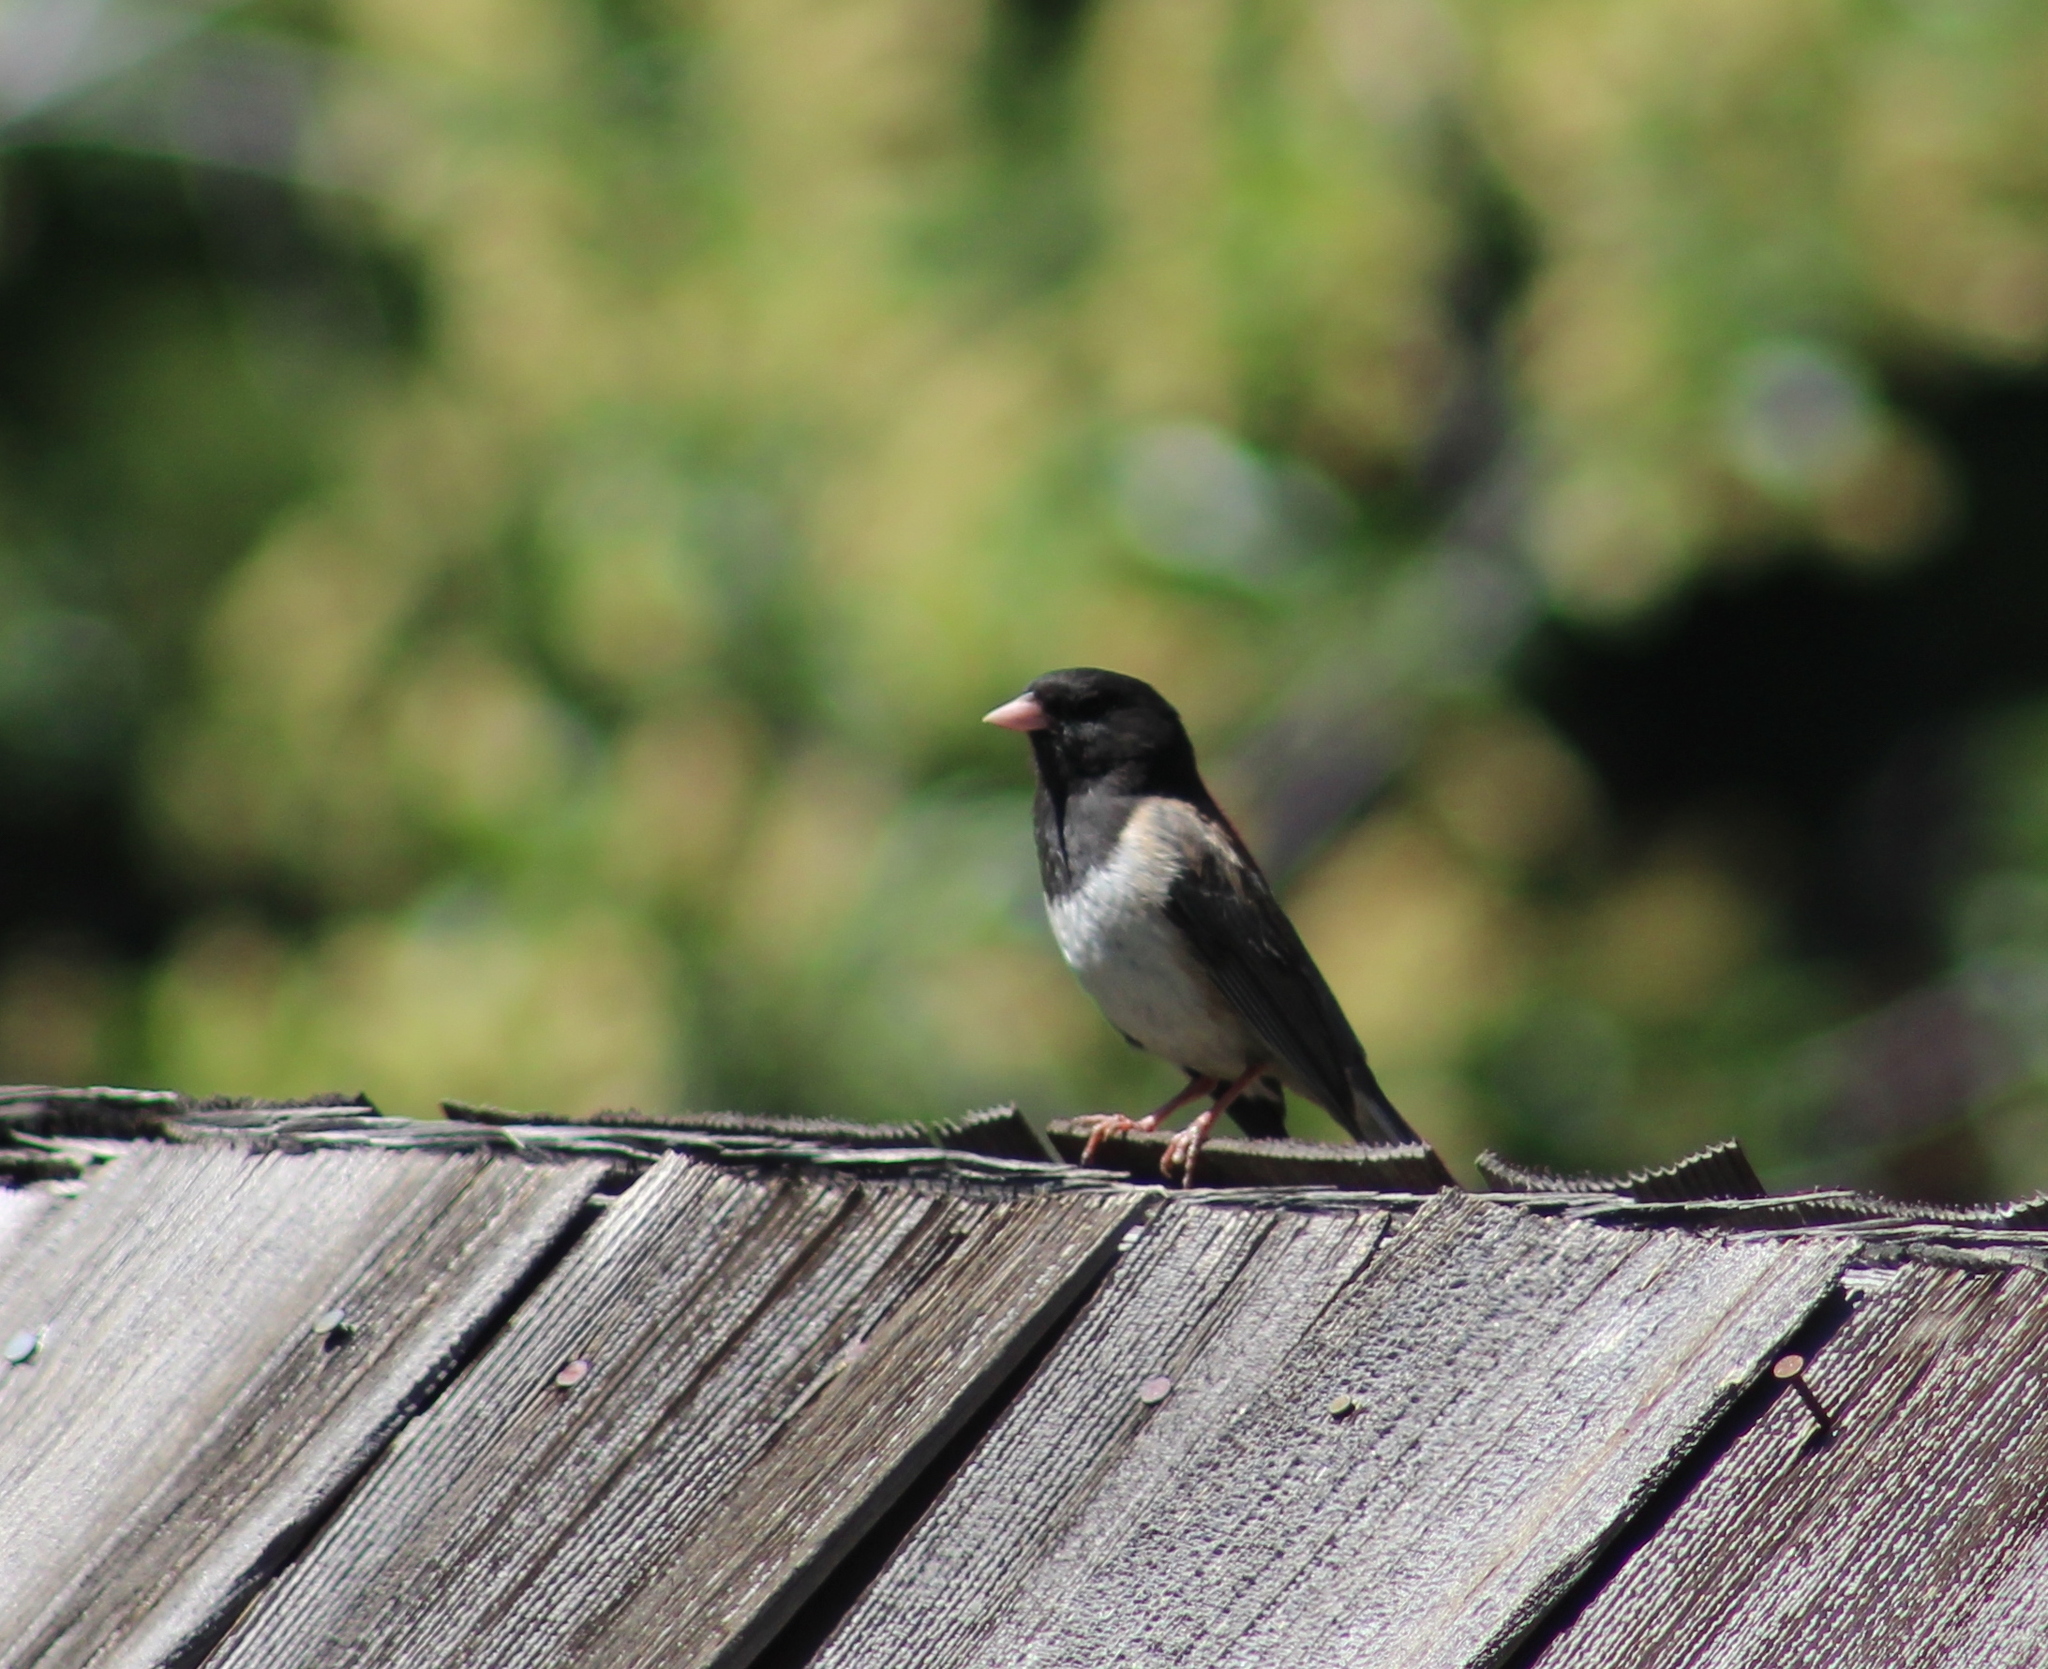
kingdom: Animalia
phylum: Chordata
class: Aves
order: Passeriformes
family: Passerellidae
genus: Junco
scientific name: Junco hyemalis
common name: Dark-eyed junco
